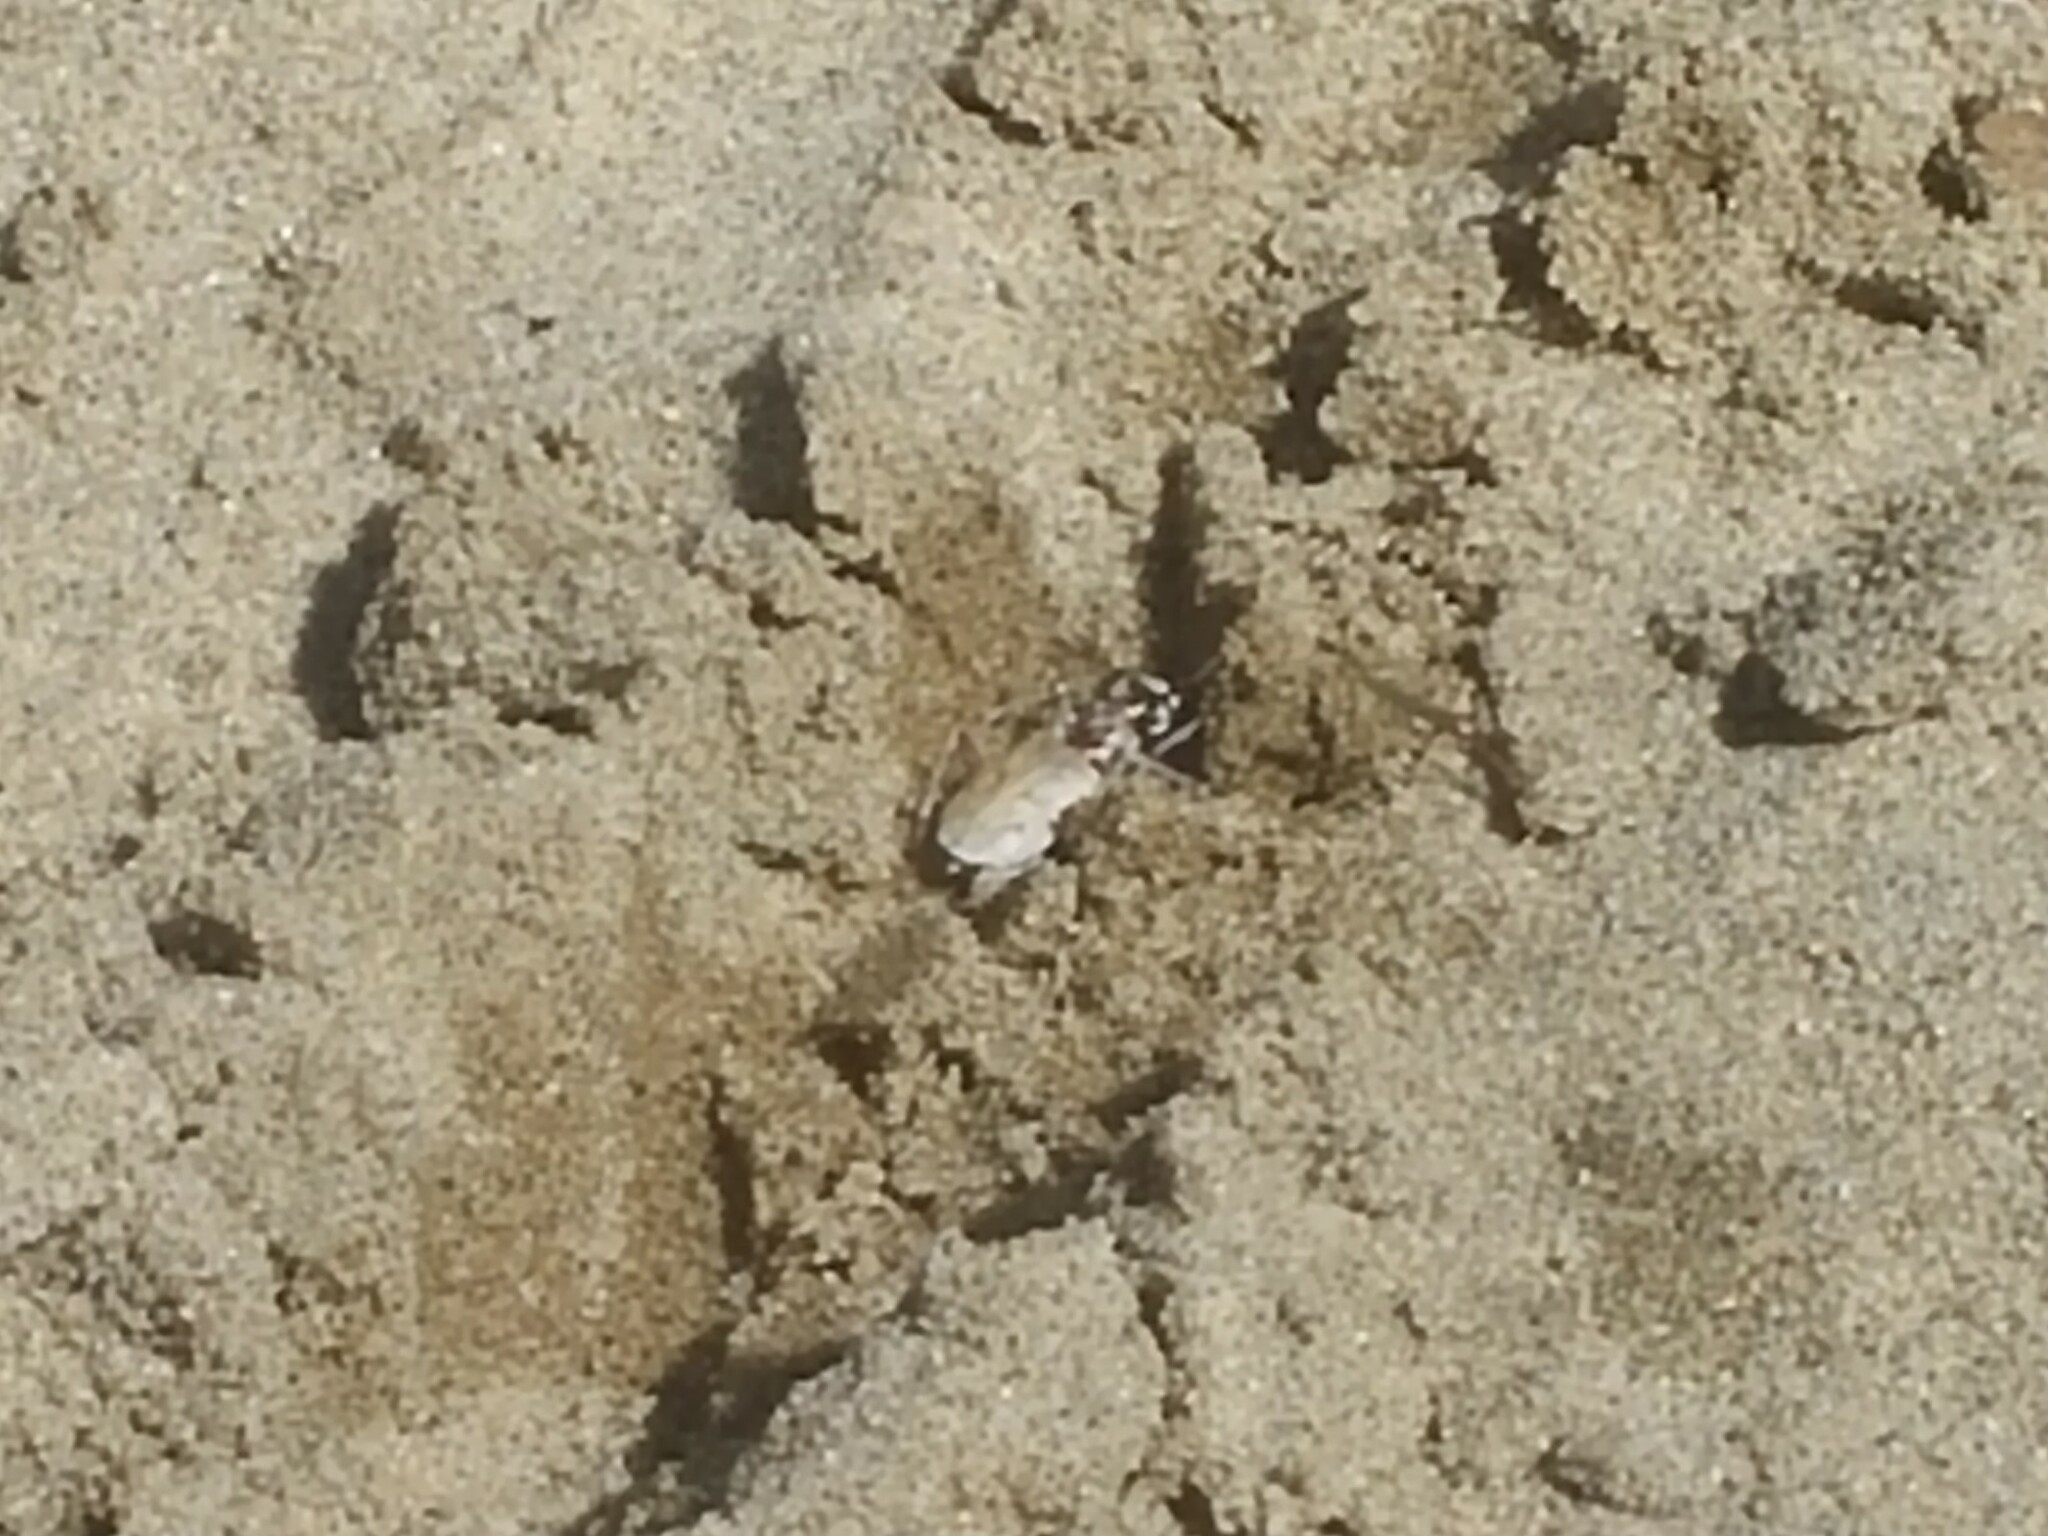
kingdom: Animalia
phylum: Arthropoda
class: Insecta
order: Coleoptera
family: Carabidae
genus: Ellipsoptera
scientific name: Ellipsoptera lepida
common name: Ghost tiger beetle
